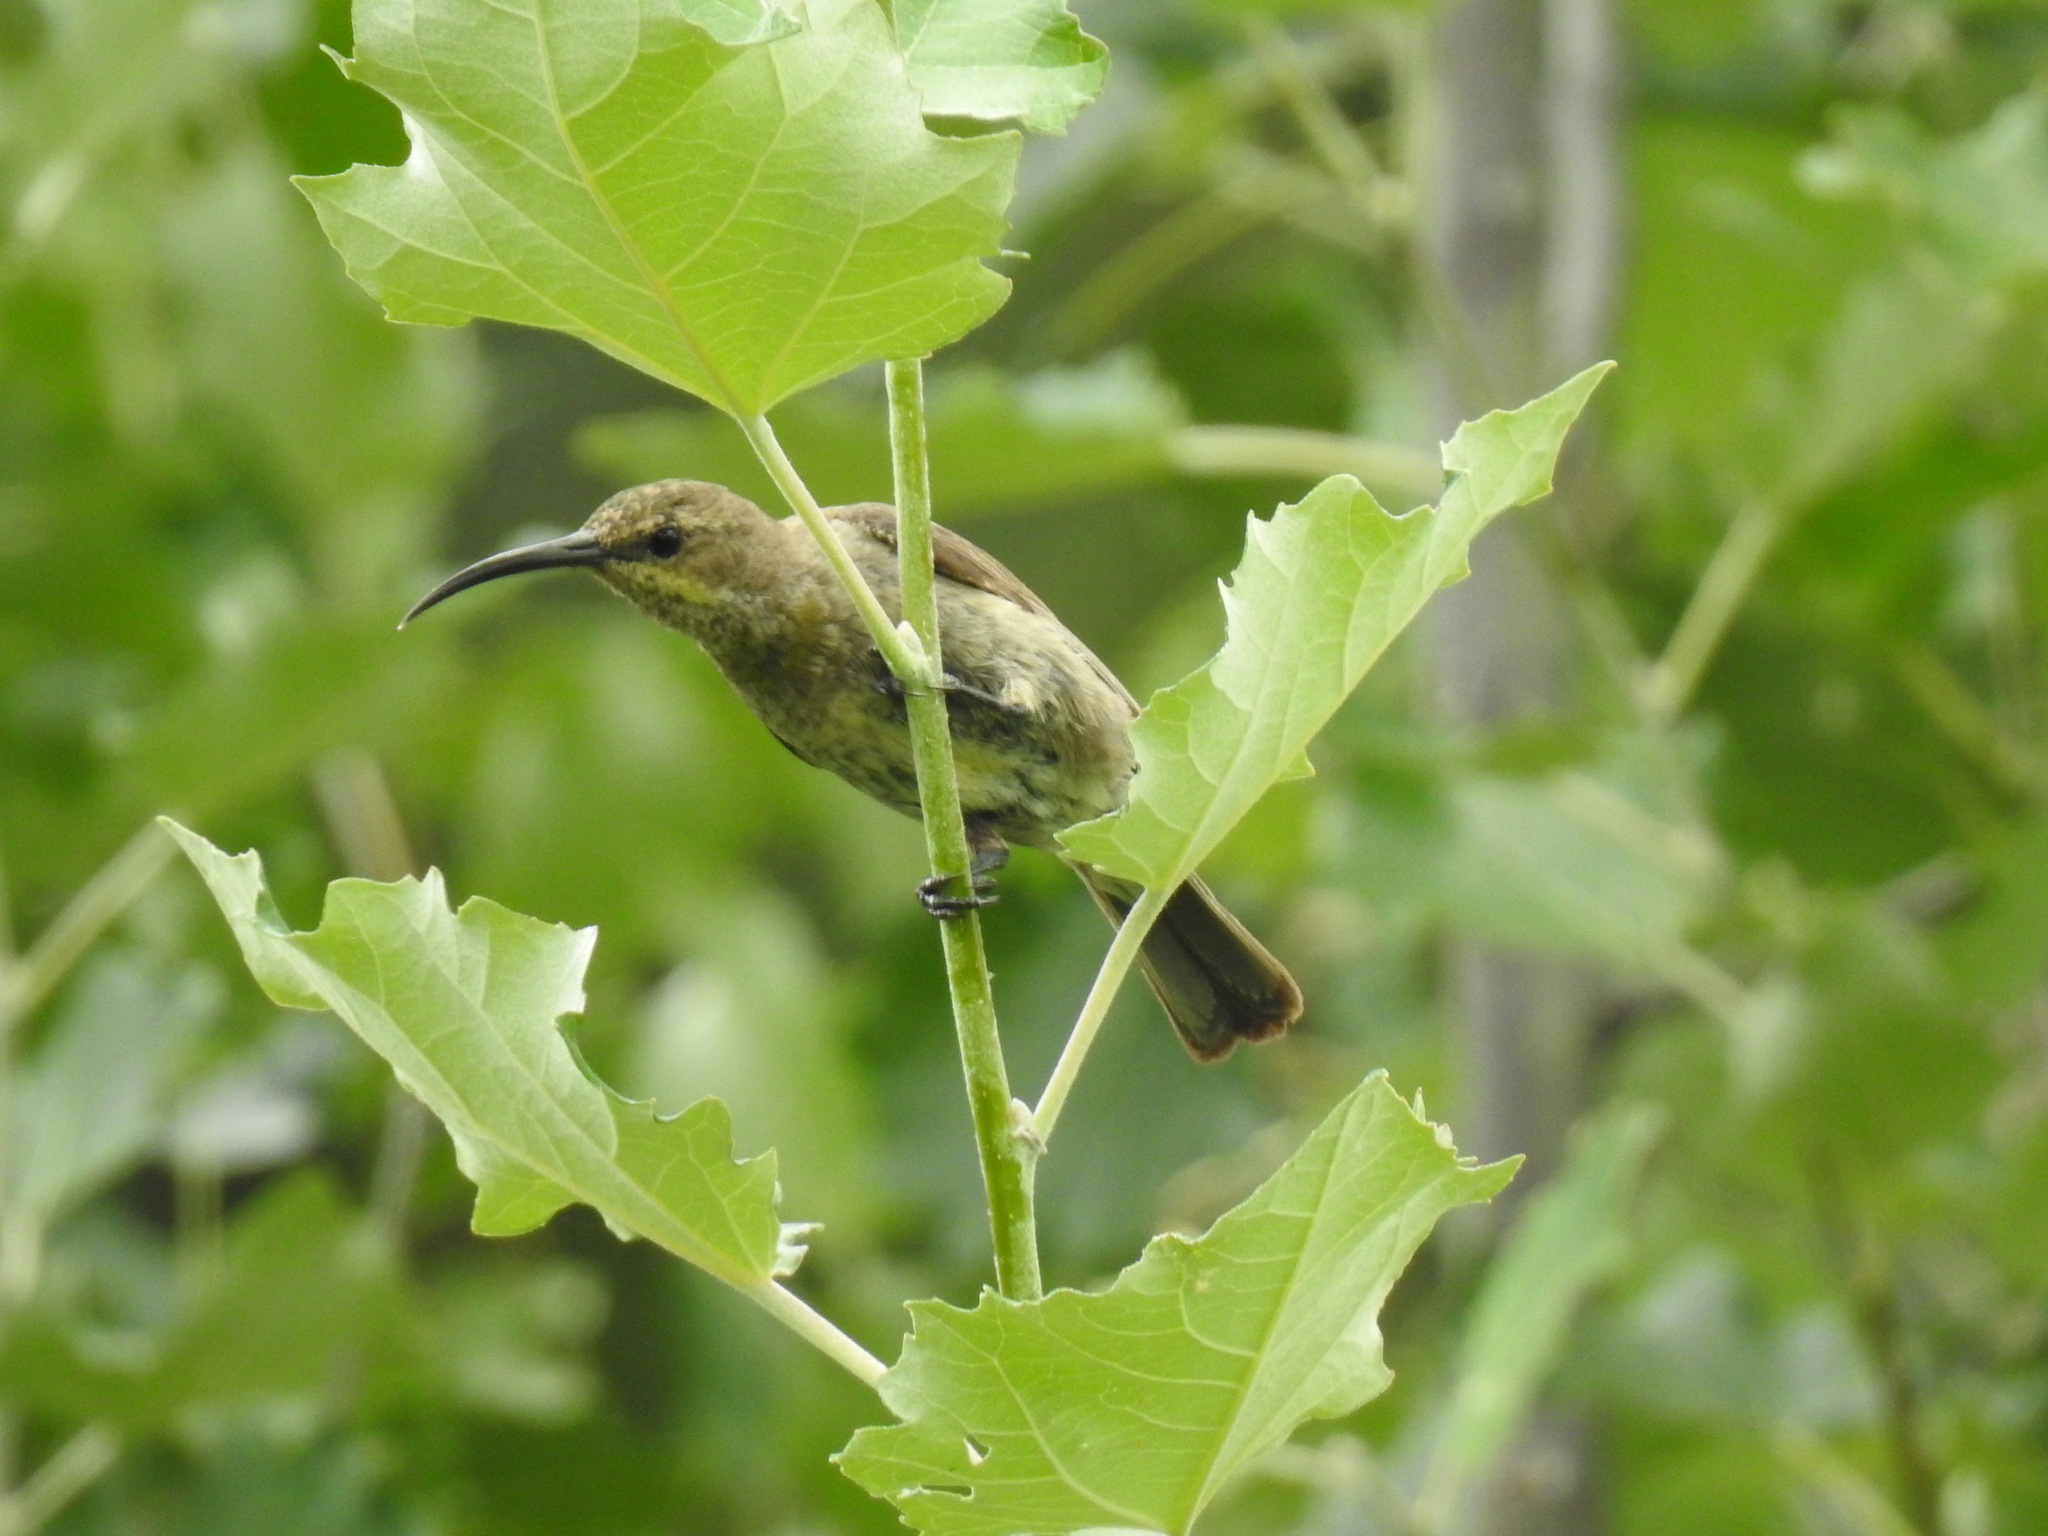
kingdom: Animalia
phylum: Chordata
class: Aves
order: Passeriformes
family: Nectariniidae
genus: Nectarinia
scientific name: Nectarinia famosa
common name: Malachite sunbird
